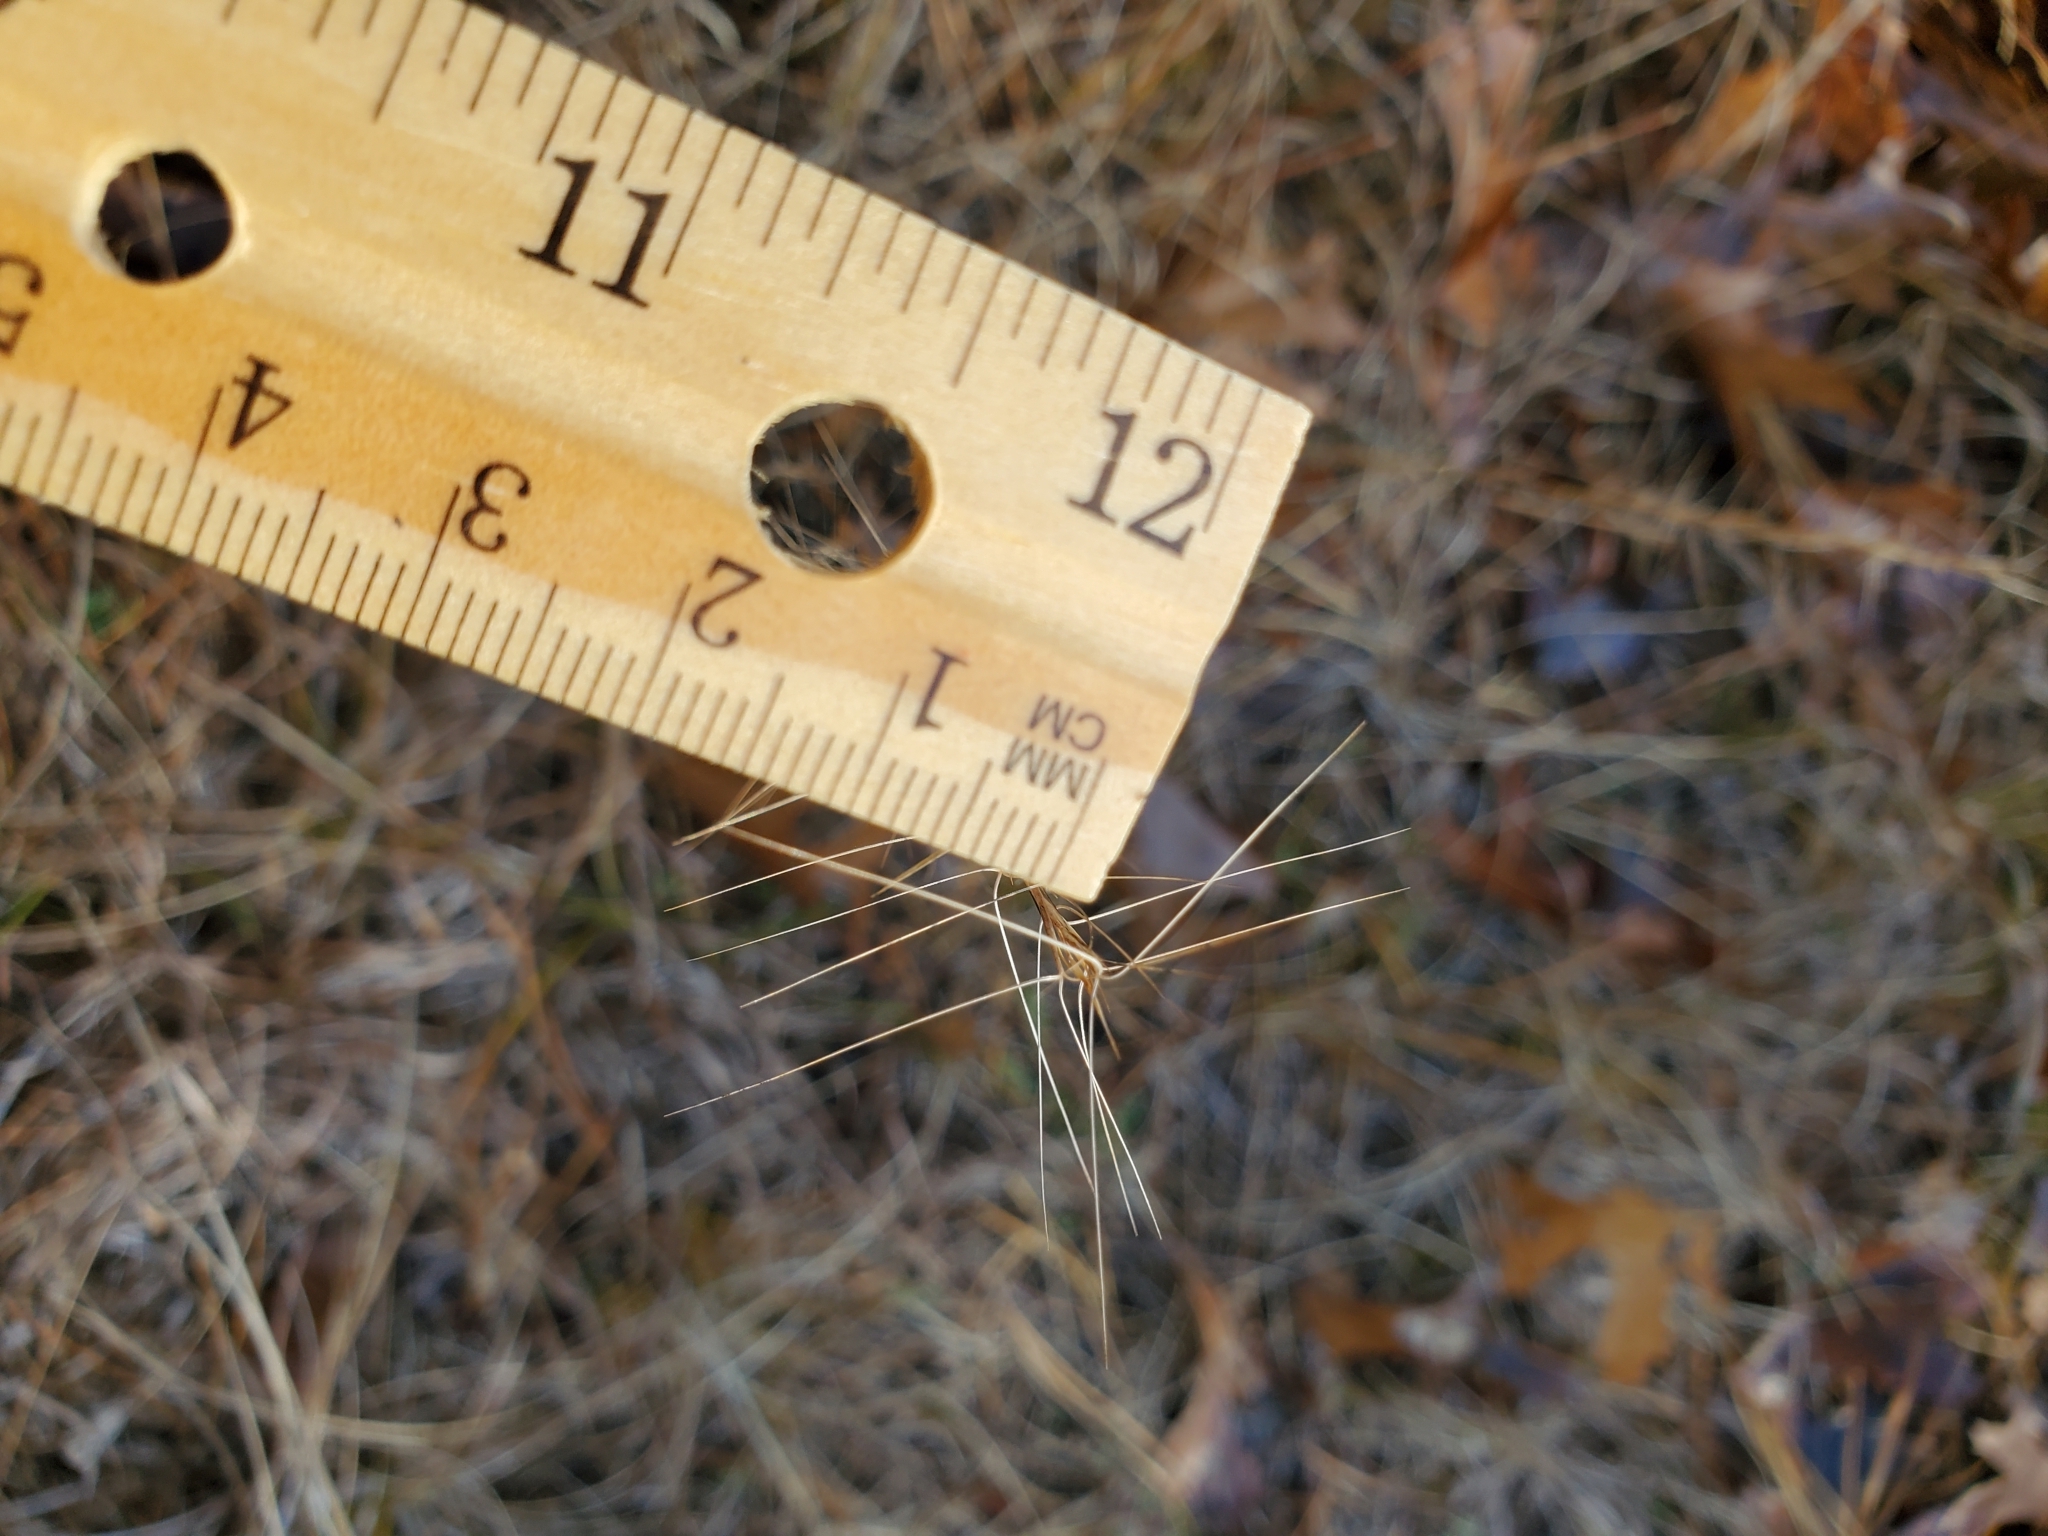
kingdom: Plantae
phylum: Tracheophyta
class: Liliopsida
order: Poales
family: Poaceae
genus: Aristida
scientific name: Aristida purpurascens
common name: Arrow-feather
